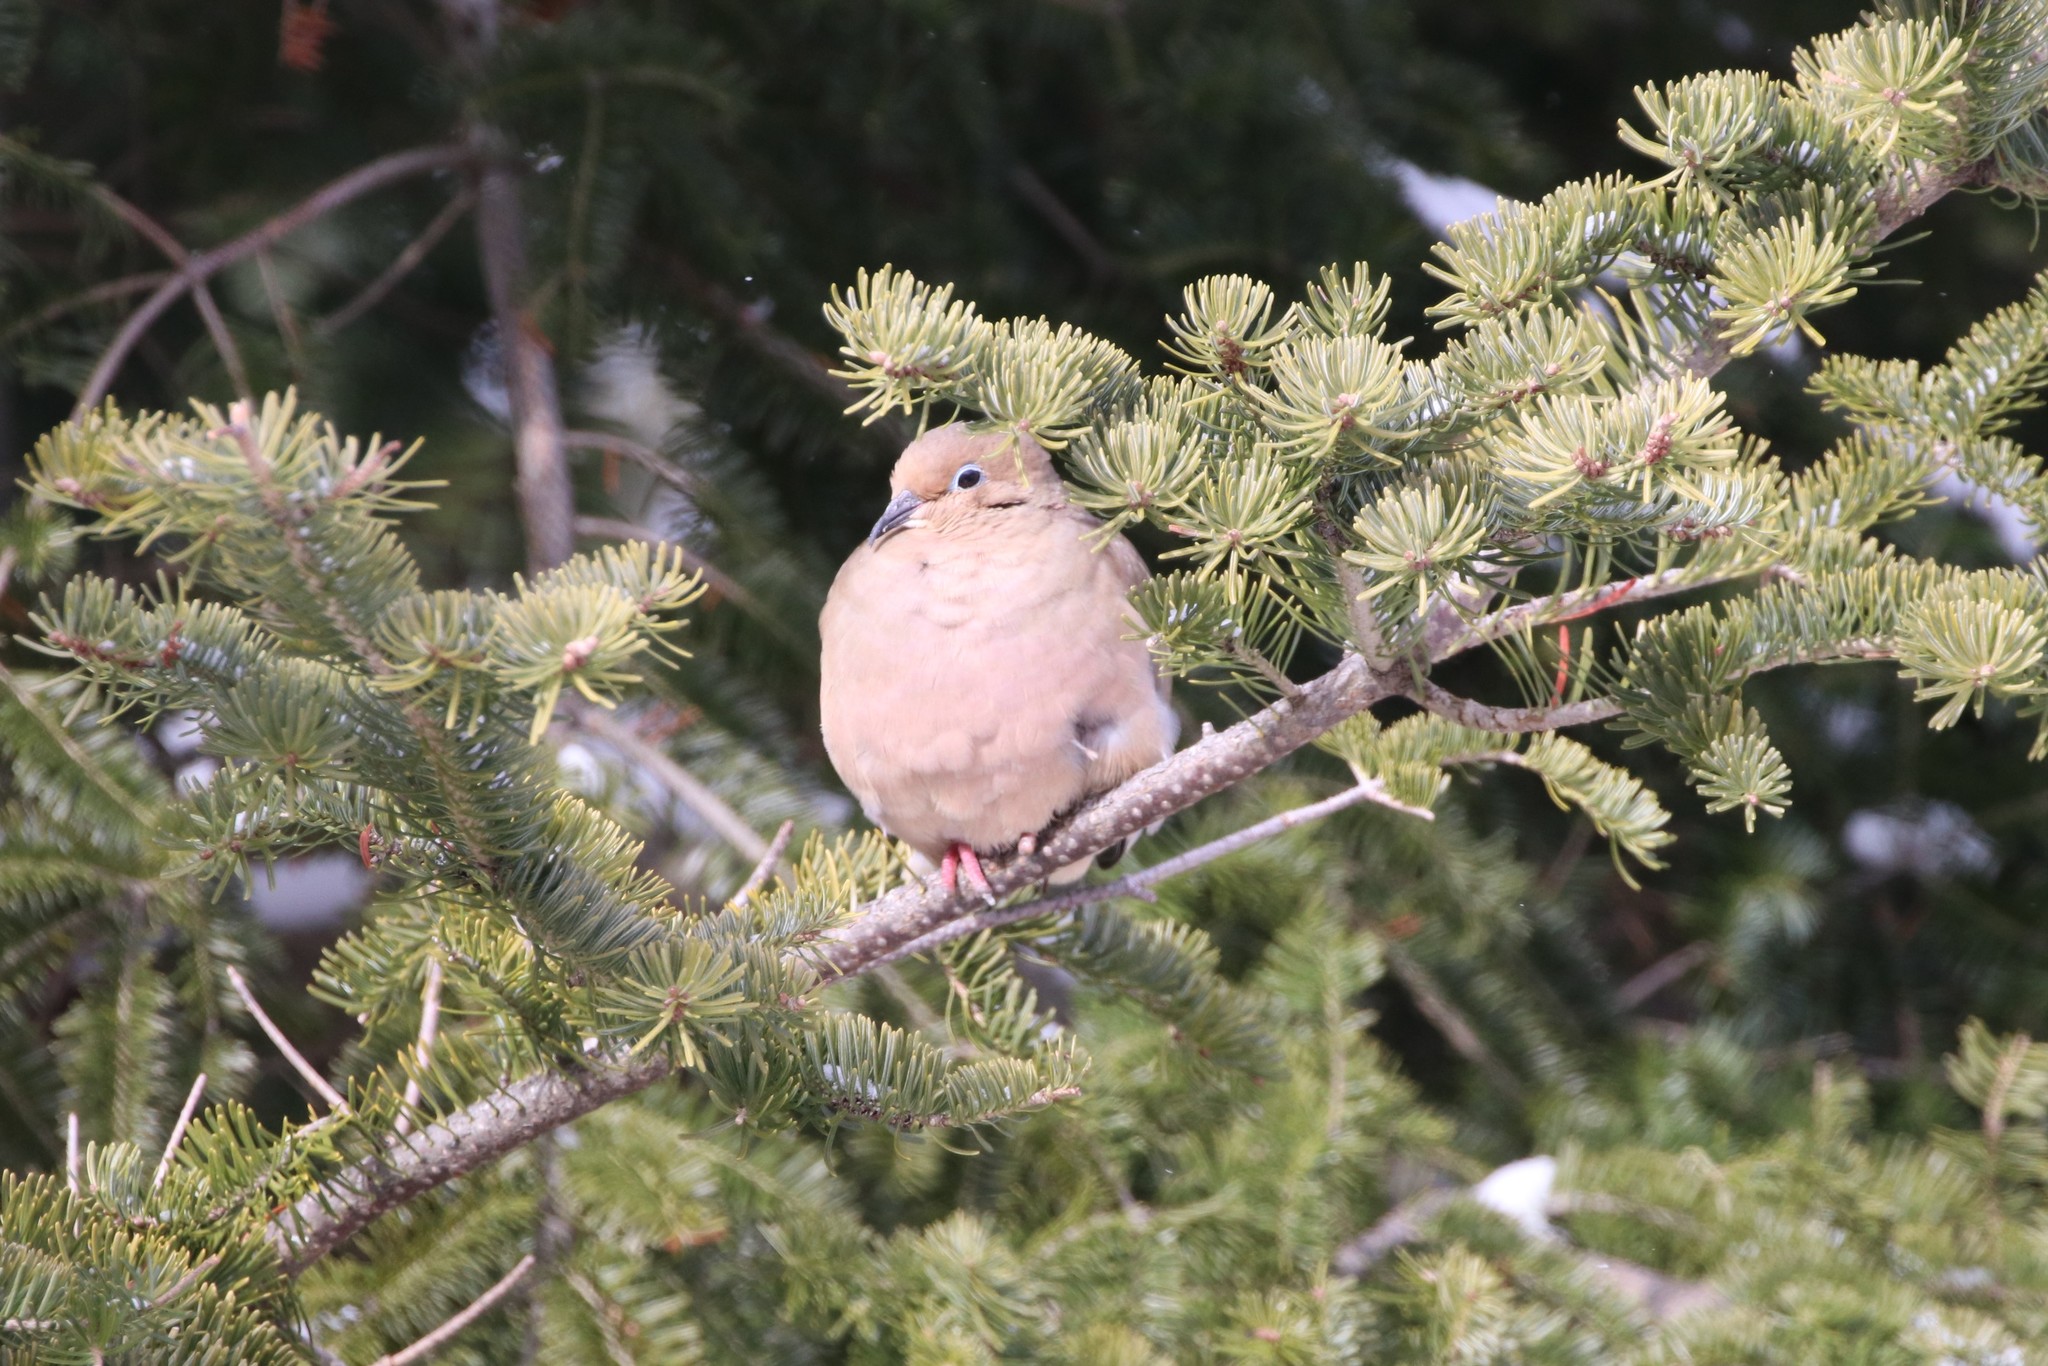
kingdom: Animalia
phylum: Chordata
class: Aves
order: Columbiformes
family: Columbidae
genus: Zenaida
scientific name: Zenaida macroura
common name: Mourning dove
